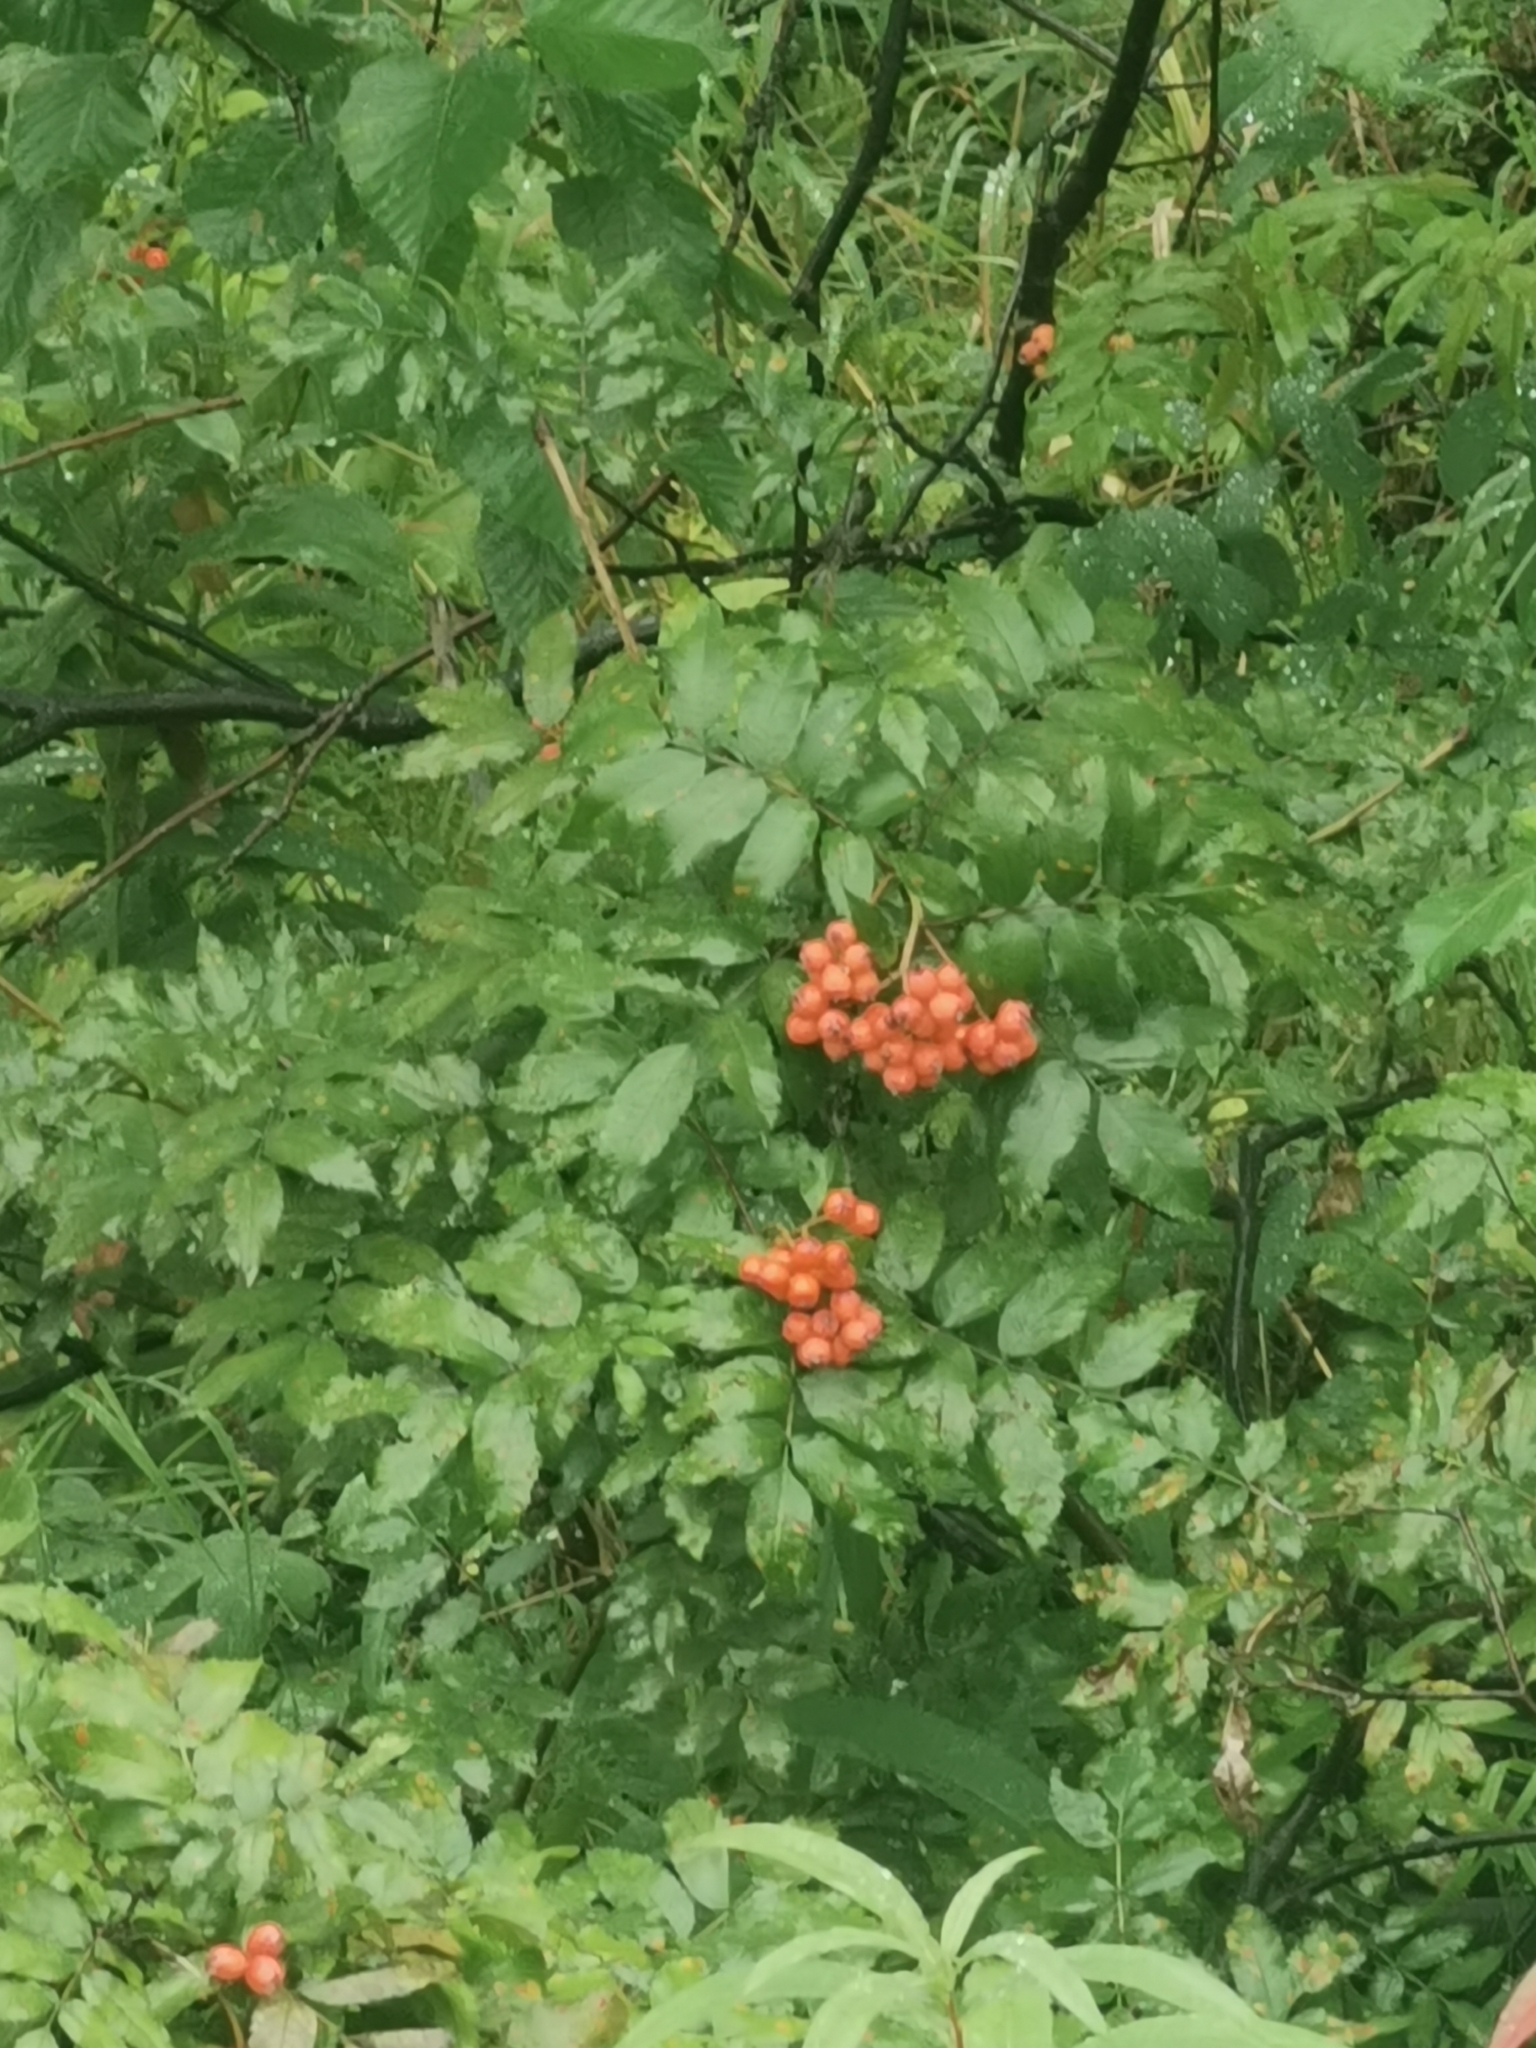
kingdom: Plantae
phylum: Tracheophyta
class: Magnoliopsida
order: Rosales
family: Rosaceae
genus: Sorbus
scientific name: Sorbus sambucifolia
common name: Siberian mountain-ash
